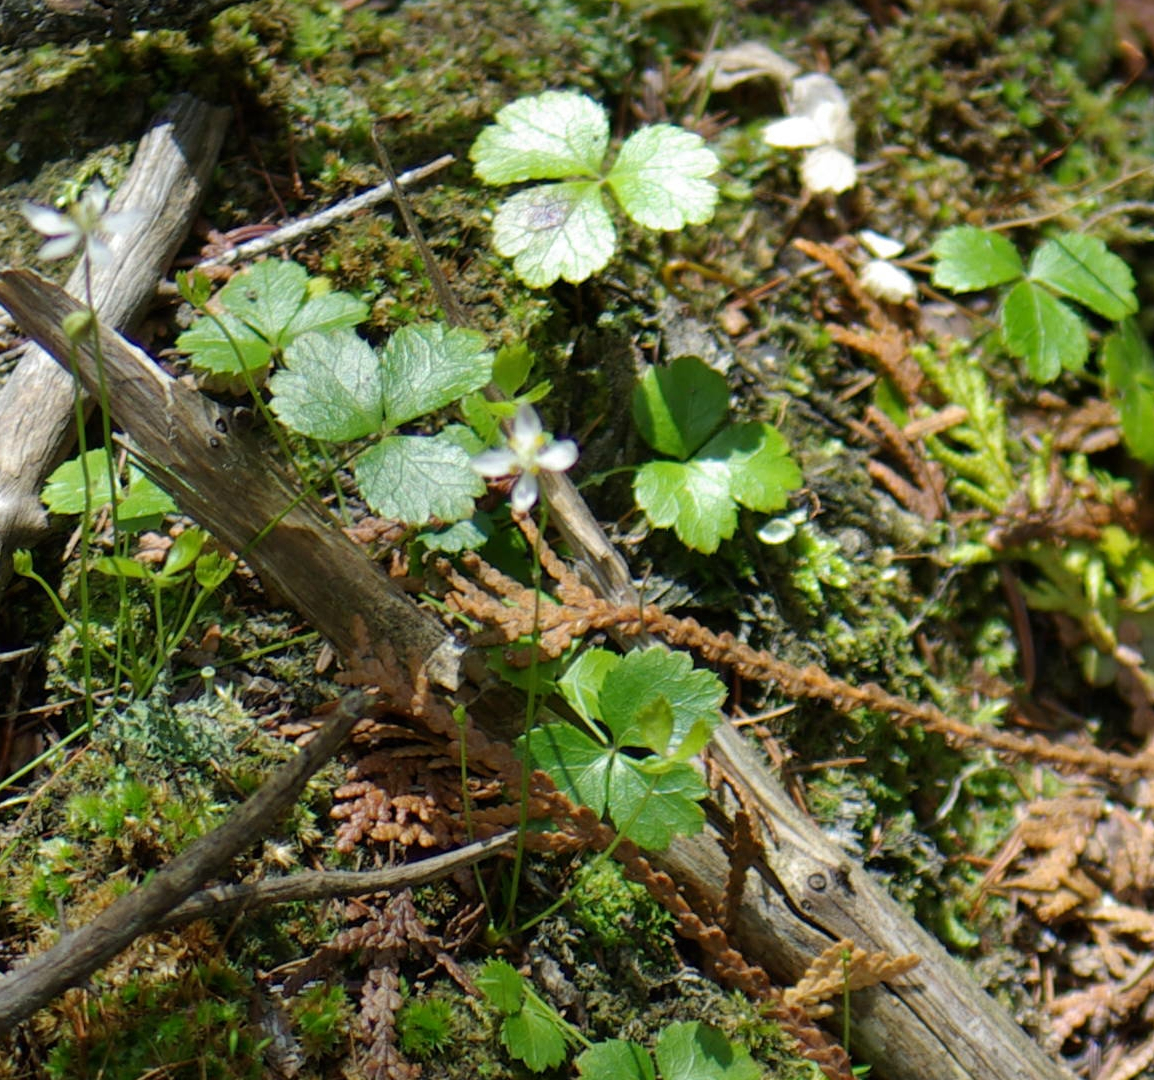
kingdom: Plantae
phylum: Tracheophyta
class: Magnoliopsida
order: Ranunculales
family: Ranunculaceae
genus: Coptis
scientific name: Coptis trifolia
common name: Canker-root
